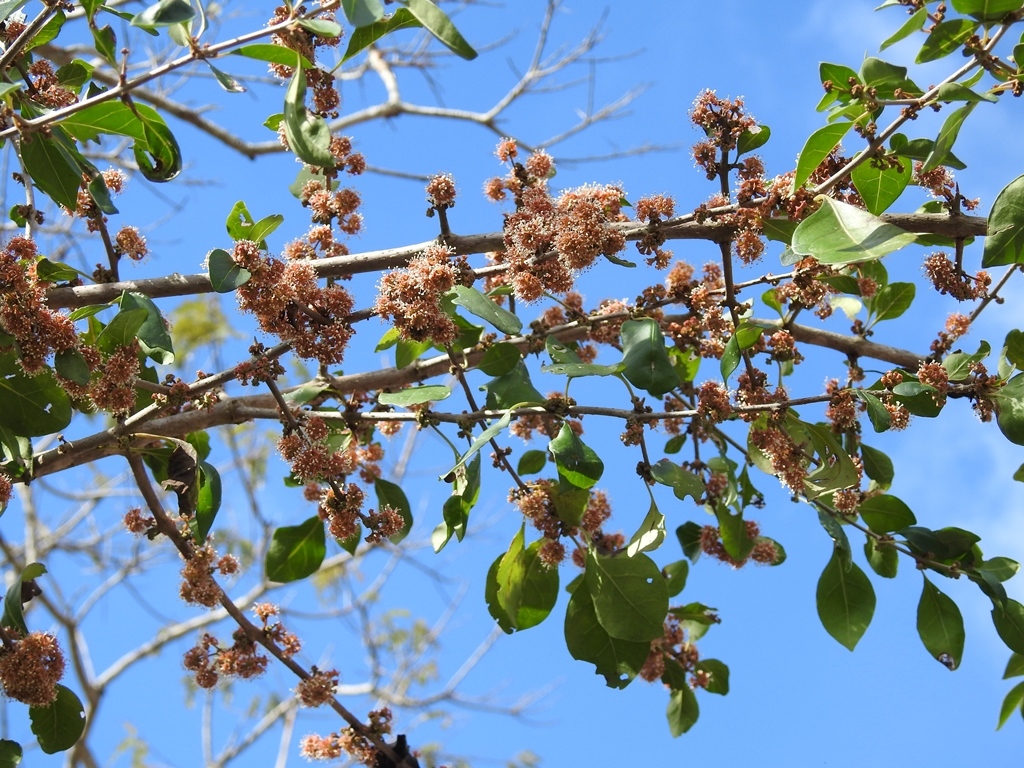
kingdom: Plantae
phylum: Tracheophyta
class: Magnoliopsida
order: Malpighiales
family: Salicaceae
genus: Xylosma
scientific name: Xylosma flexuosa
